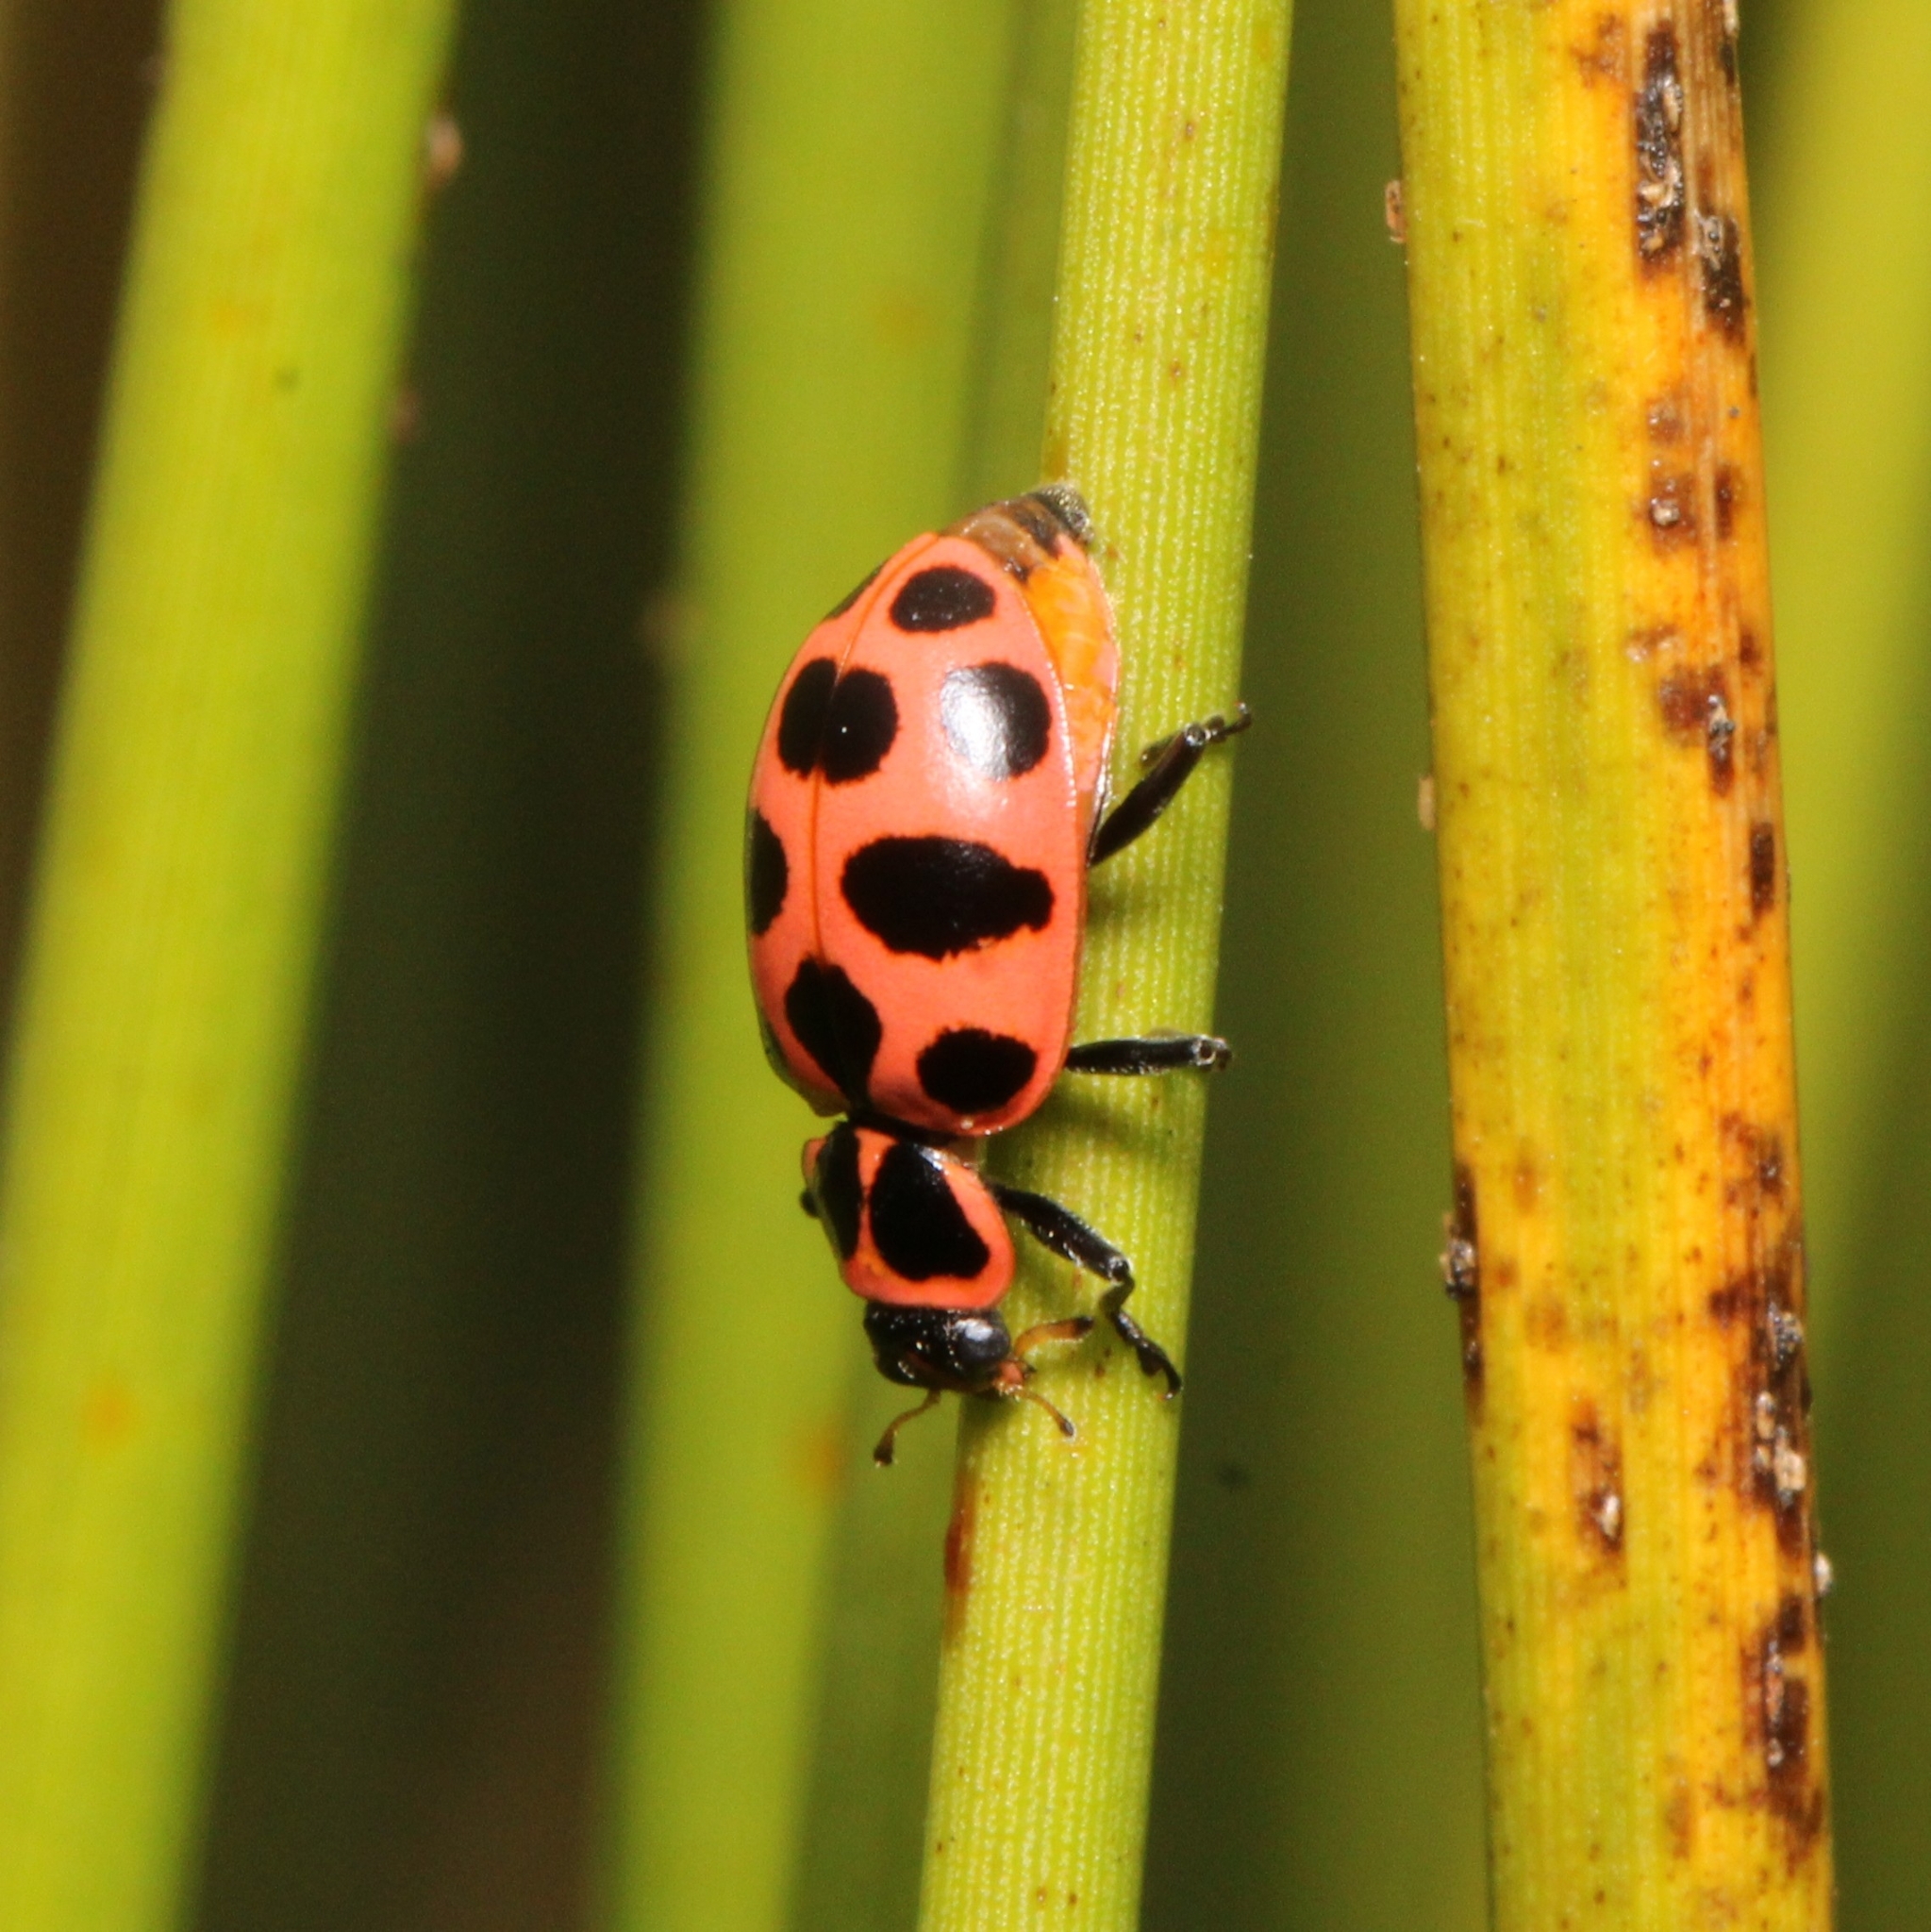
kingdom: Animalia
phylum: Arthropoda
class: Insecta
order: Coleoptera
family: Coccinellidae
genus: Coleomegilla
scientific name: Coleomegilla maculata
